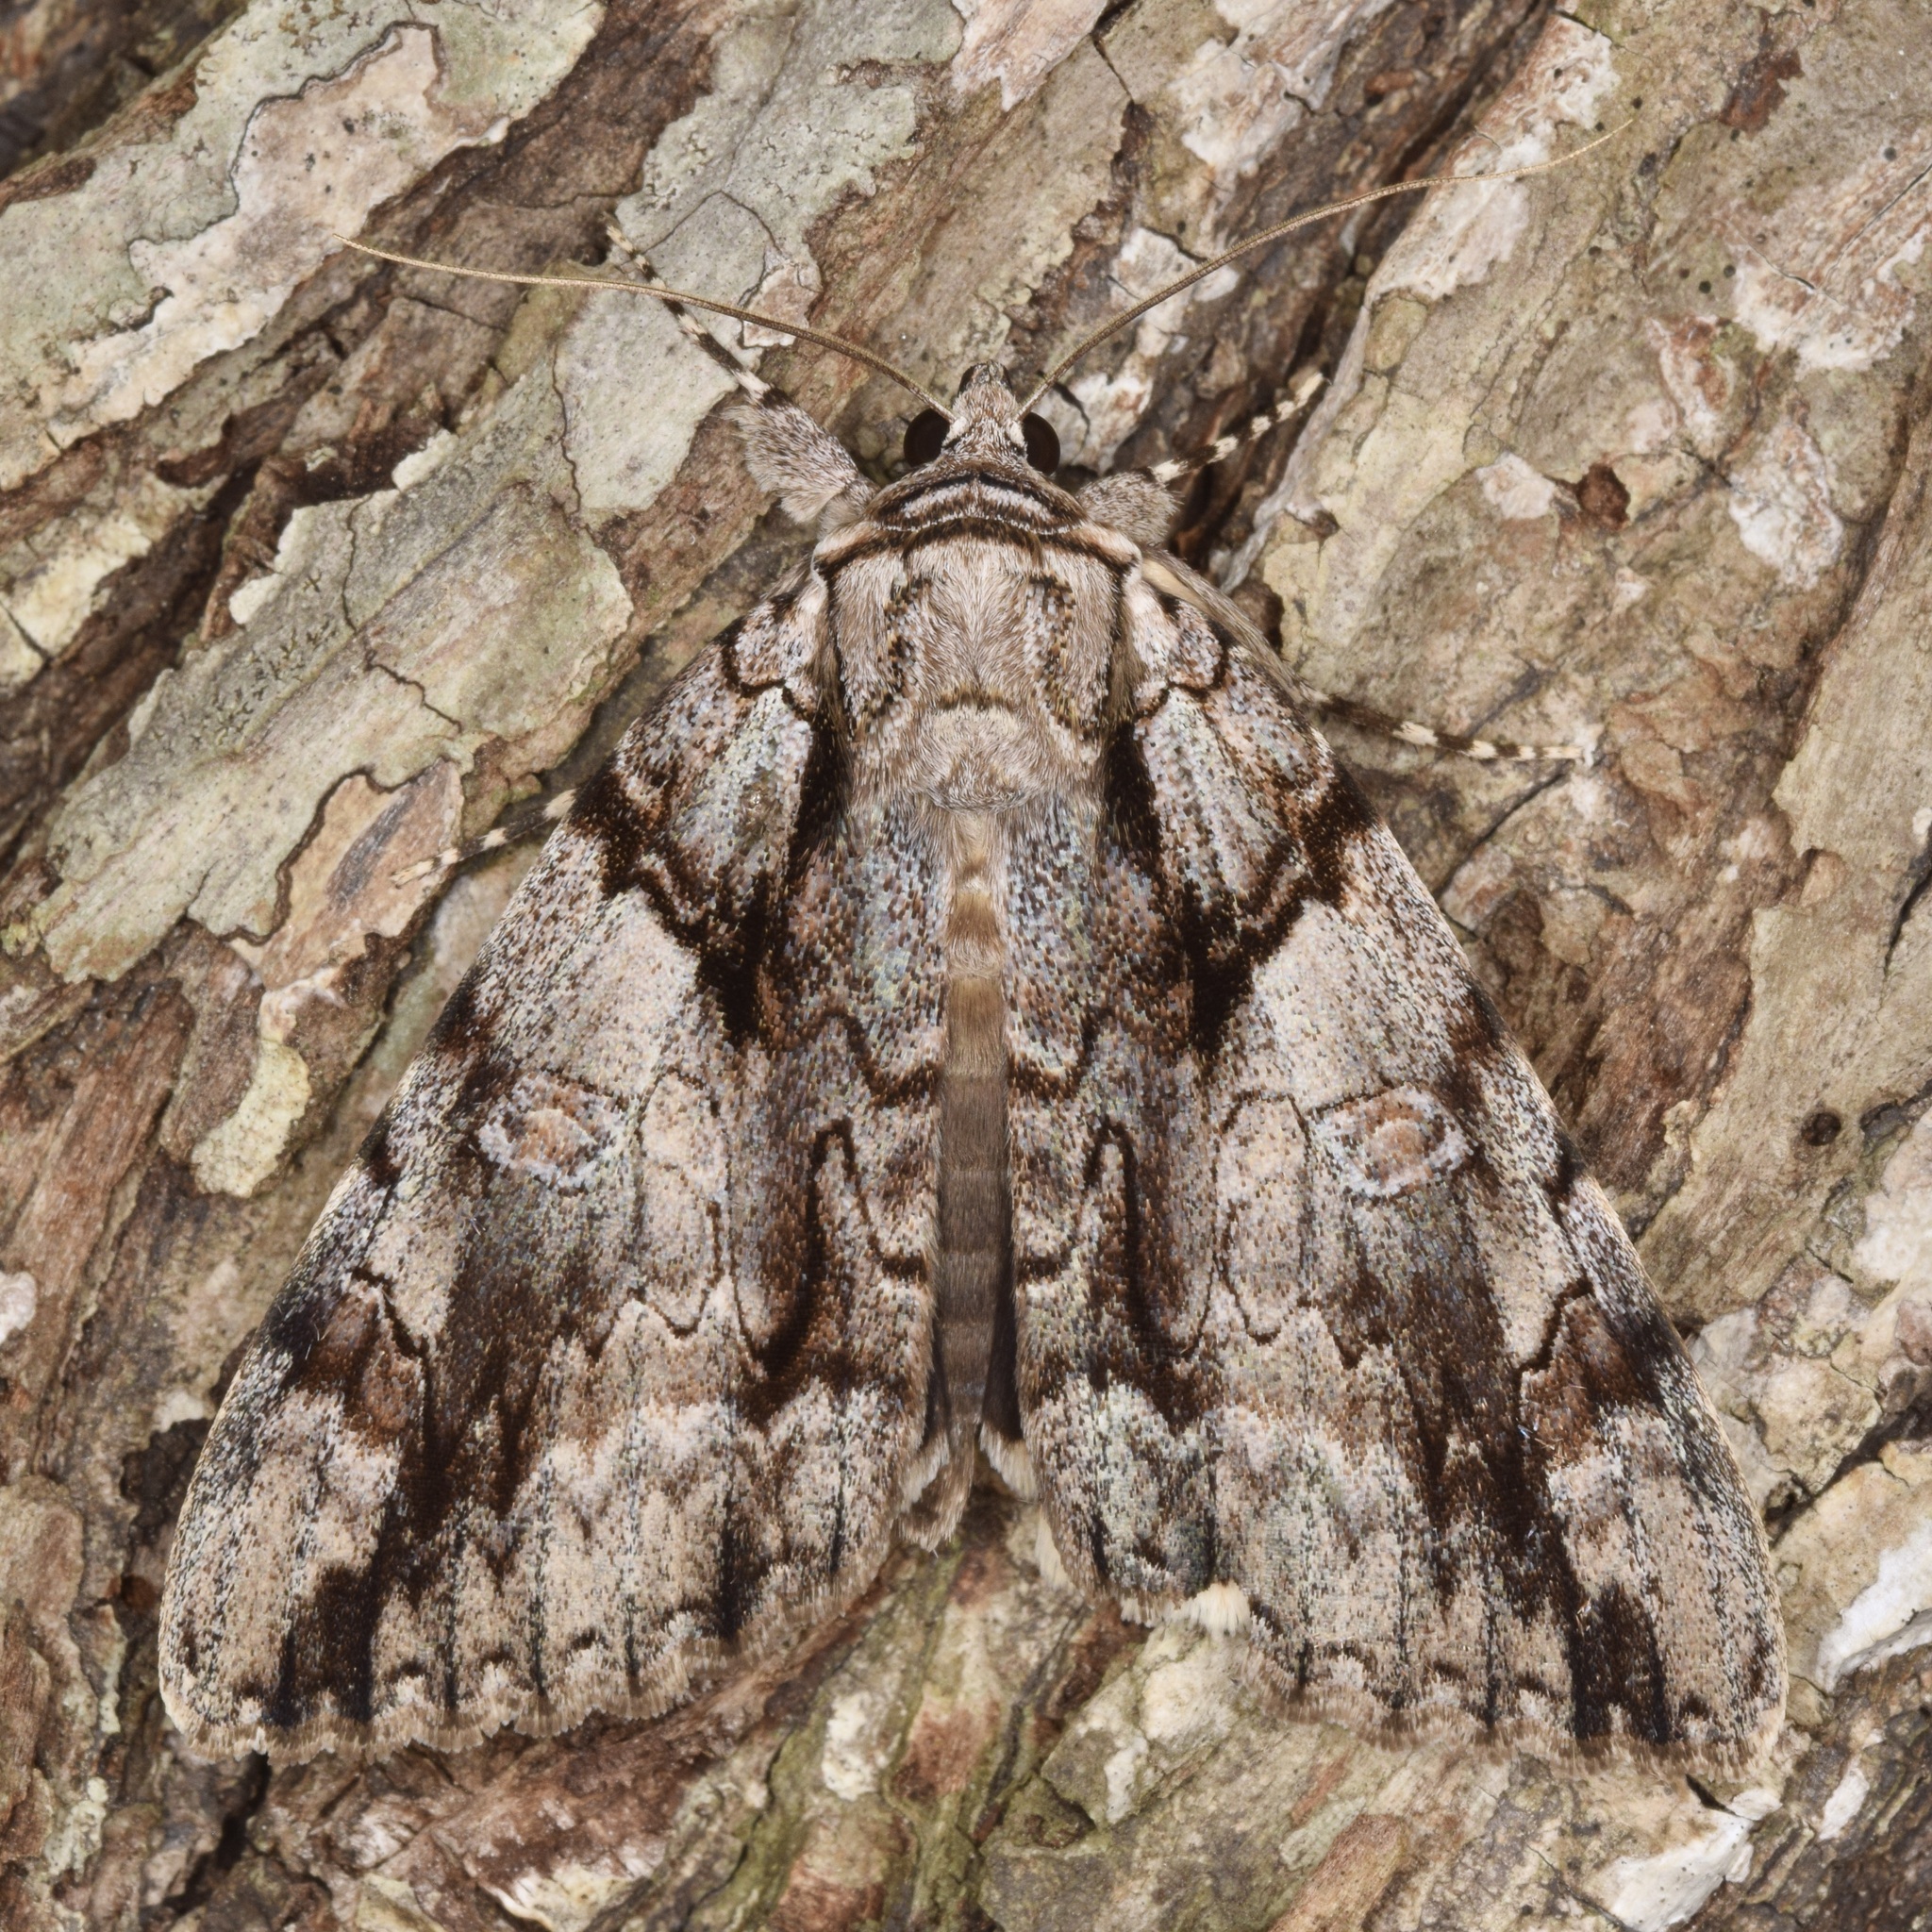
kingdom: Animalia
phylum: Arthropoda
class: Insecta
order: Lepidoptera
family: Erebidae
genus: Catocala
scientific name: Catocala vidua
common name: The widow
